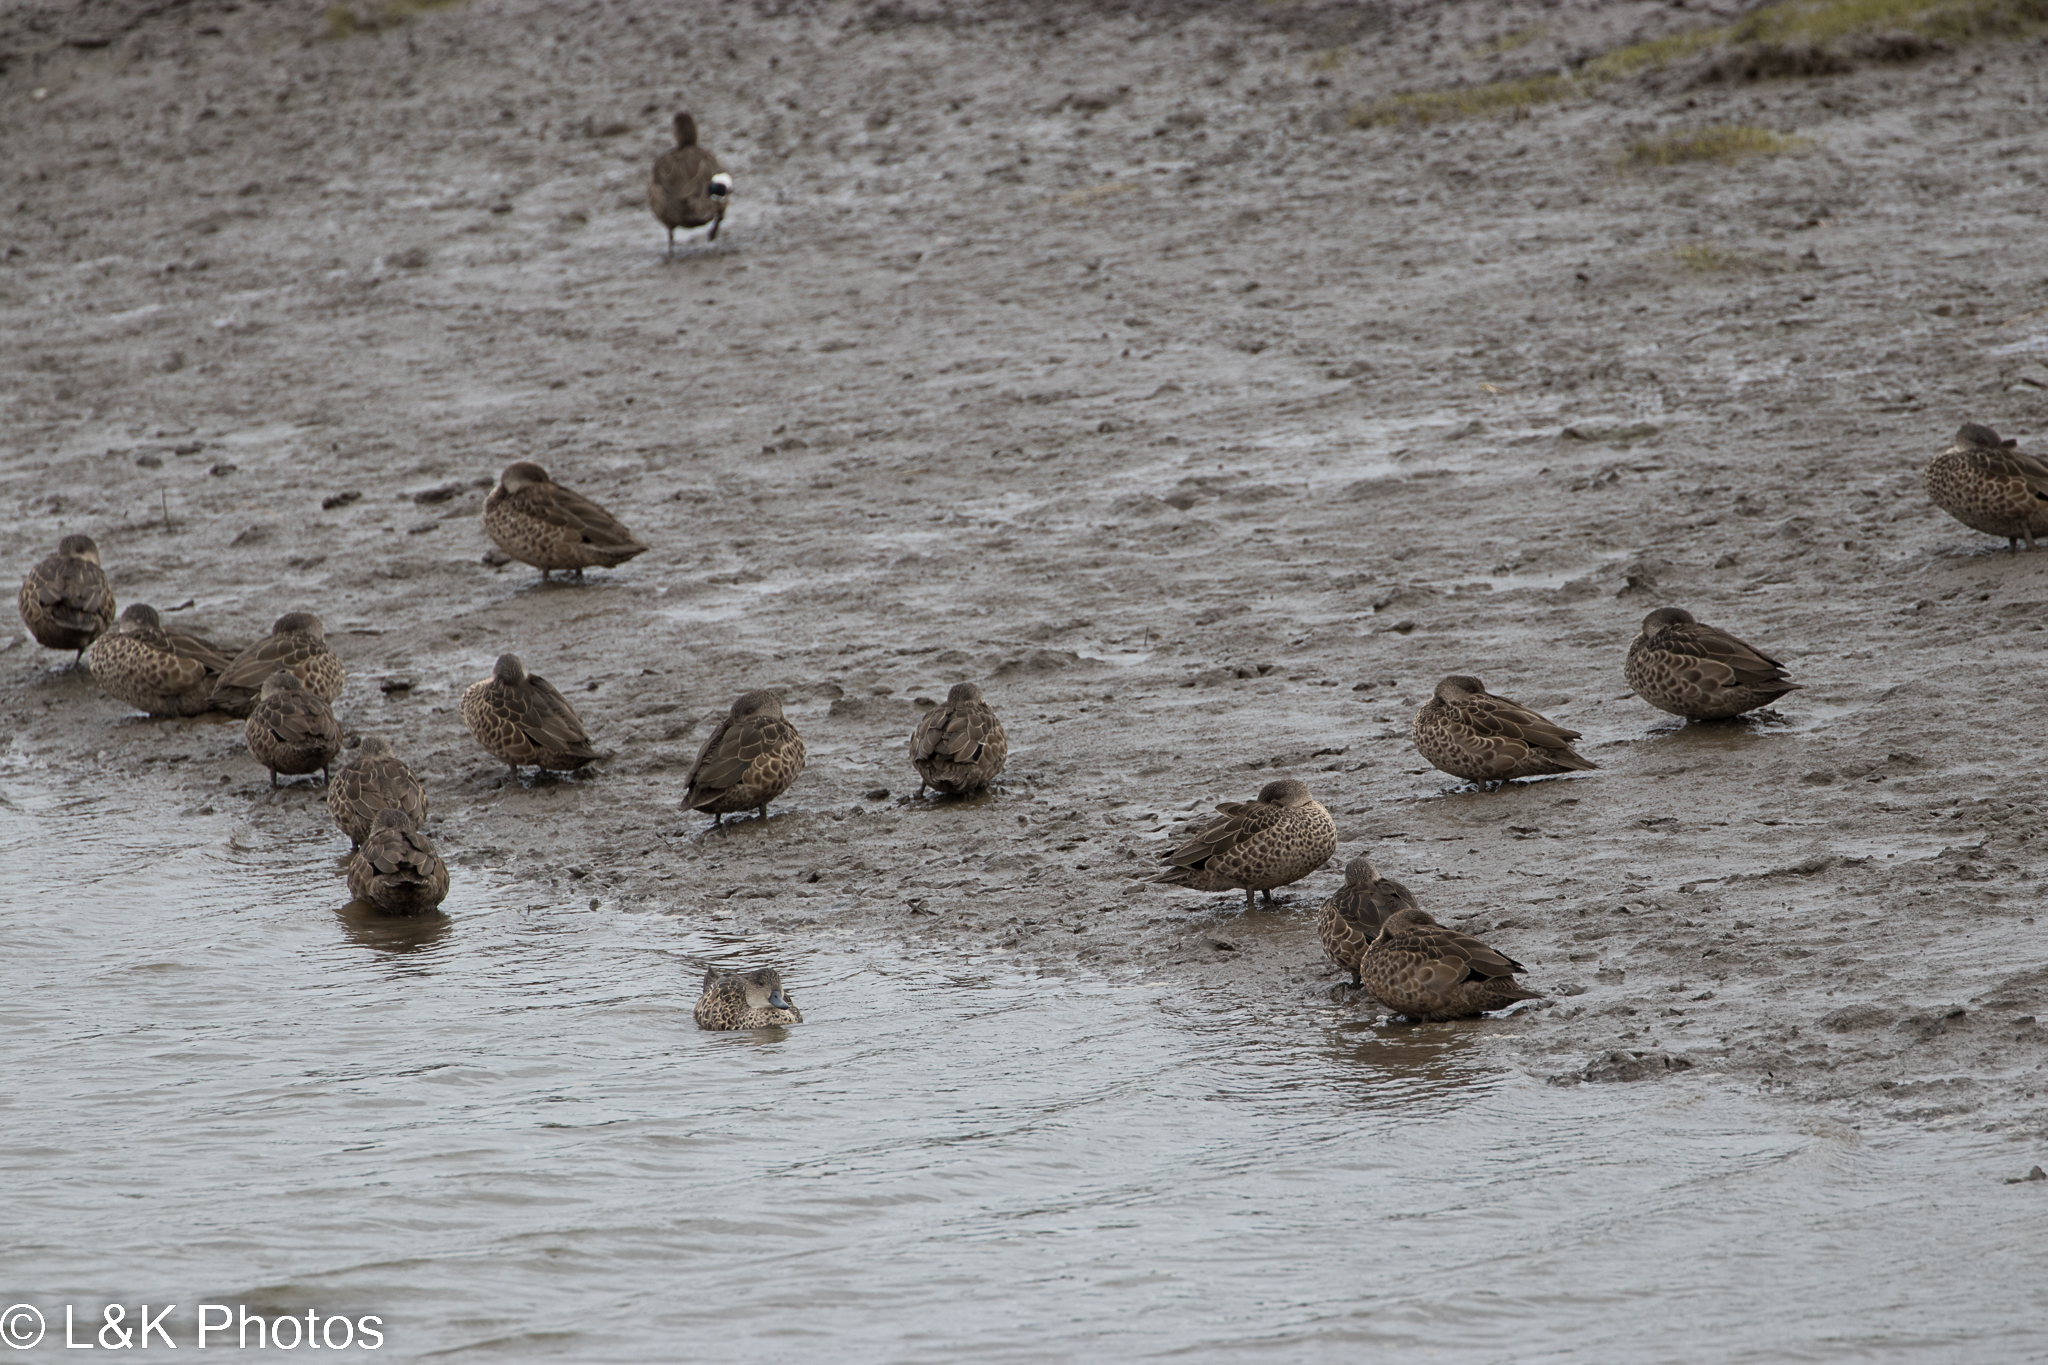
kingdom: Animalia
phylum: Chordata
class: Aves
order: Anseriformes
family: Anatidae
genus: Anas
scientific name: Anas gracilis
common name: Grey teal
